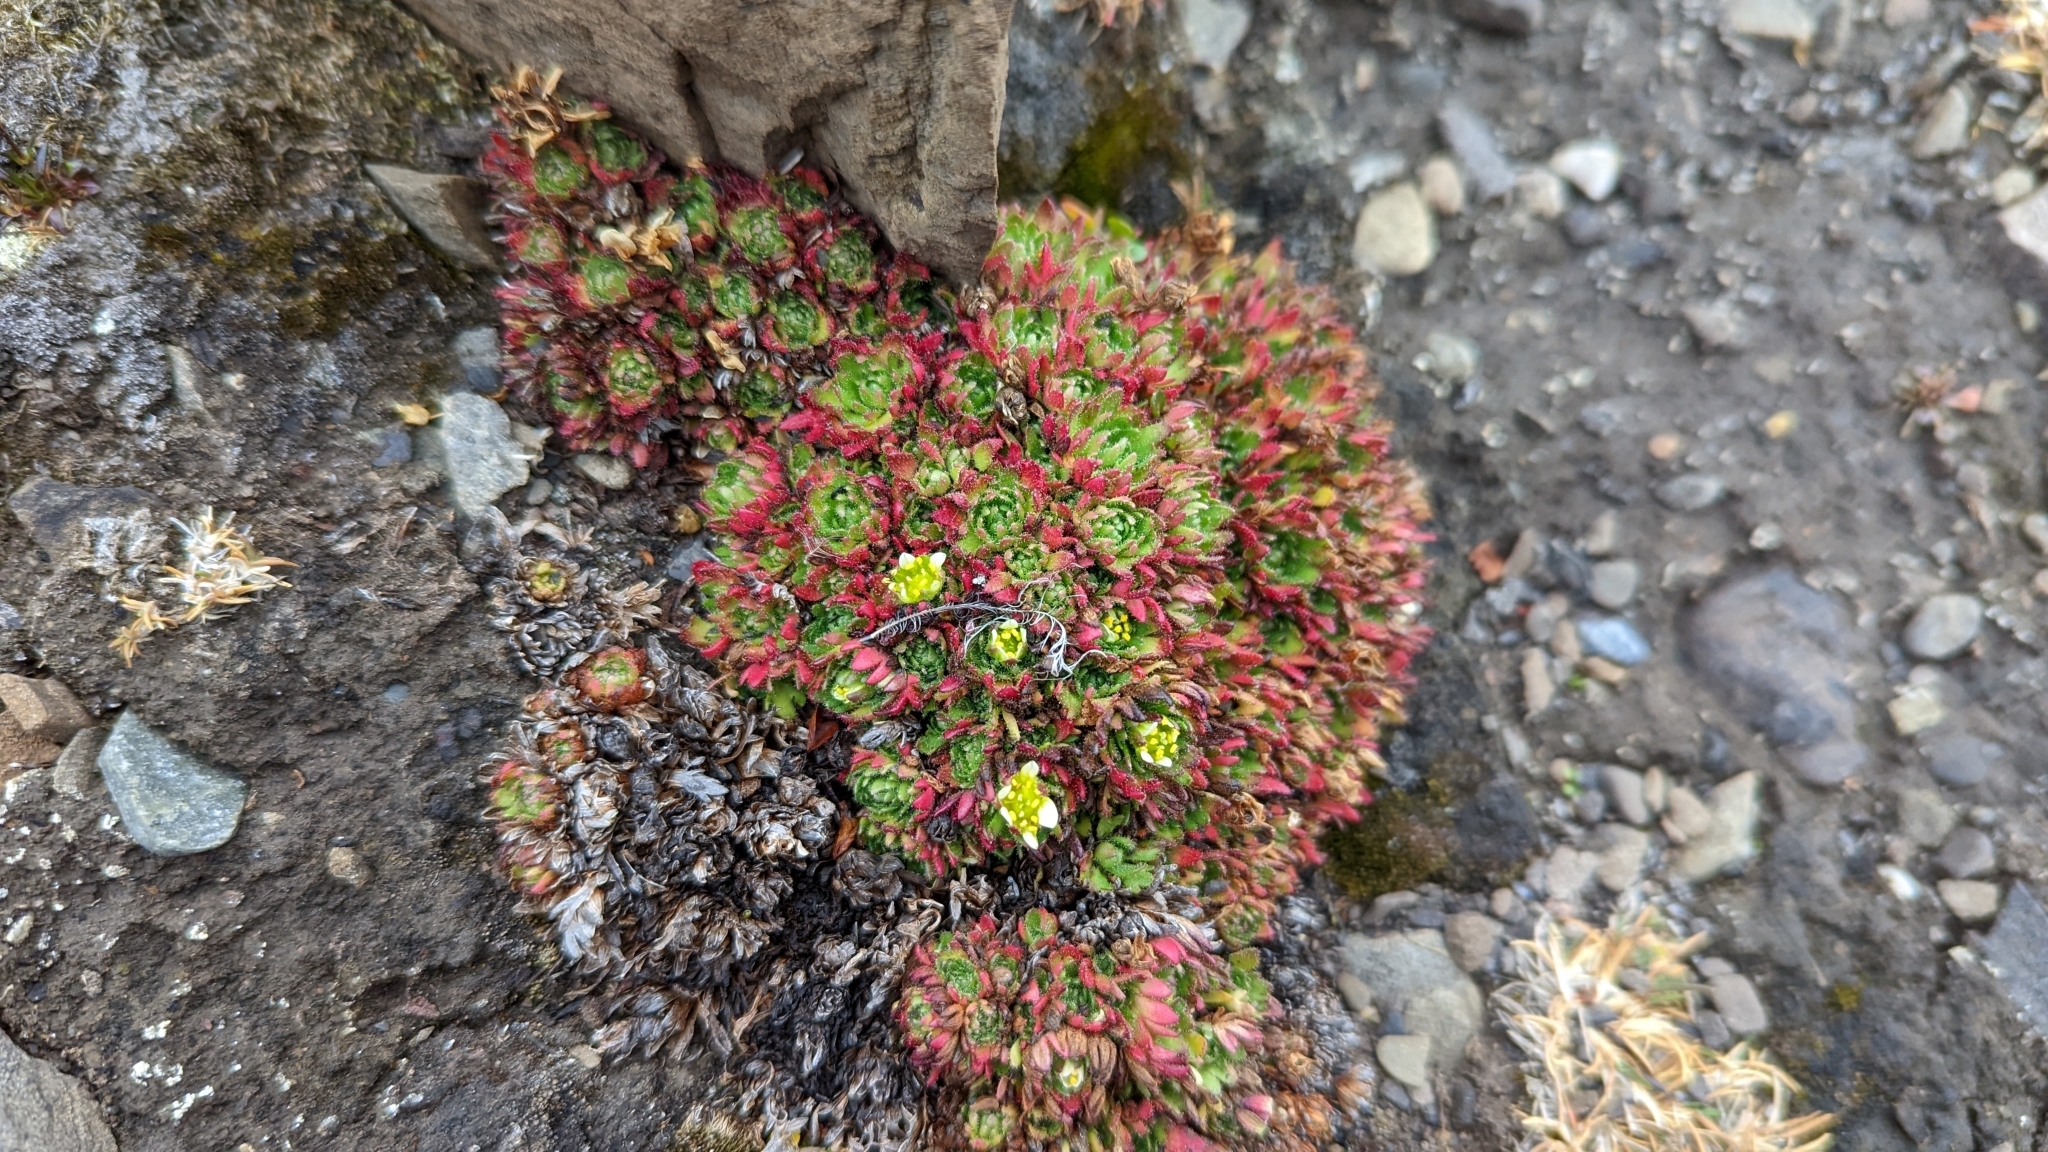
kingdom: Plantae
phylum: Tracheophyta
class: Magnoliopsida
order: Saxifragales
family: Saxifragaceae
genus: Saxifraga
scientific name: Saxifraga cespitosa
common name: Tufted saxifrage
